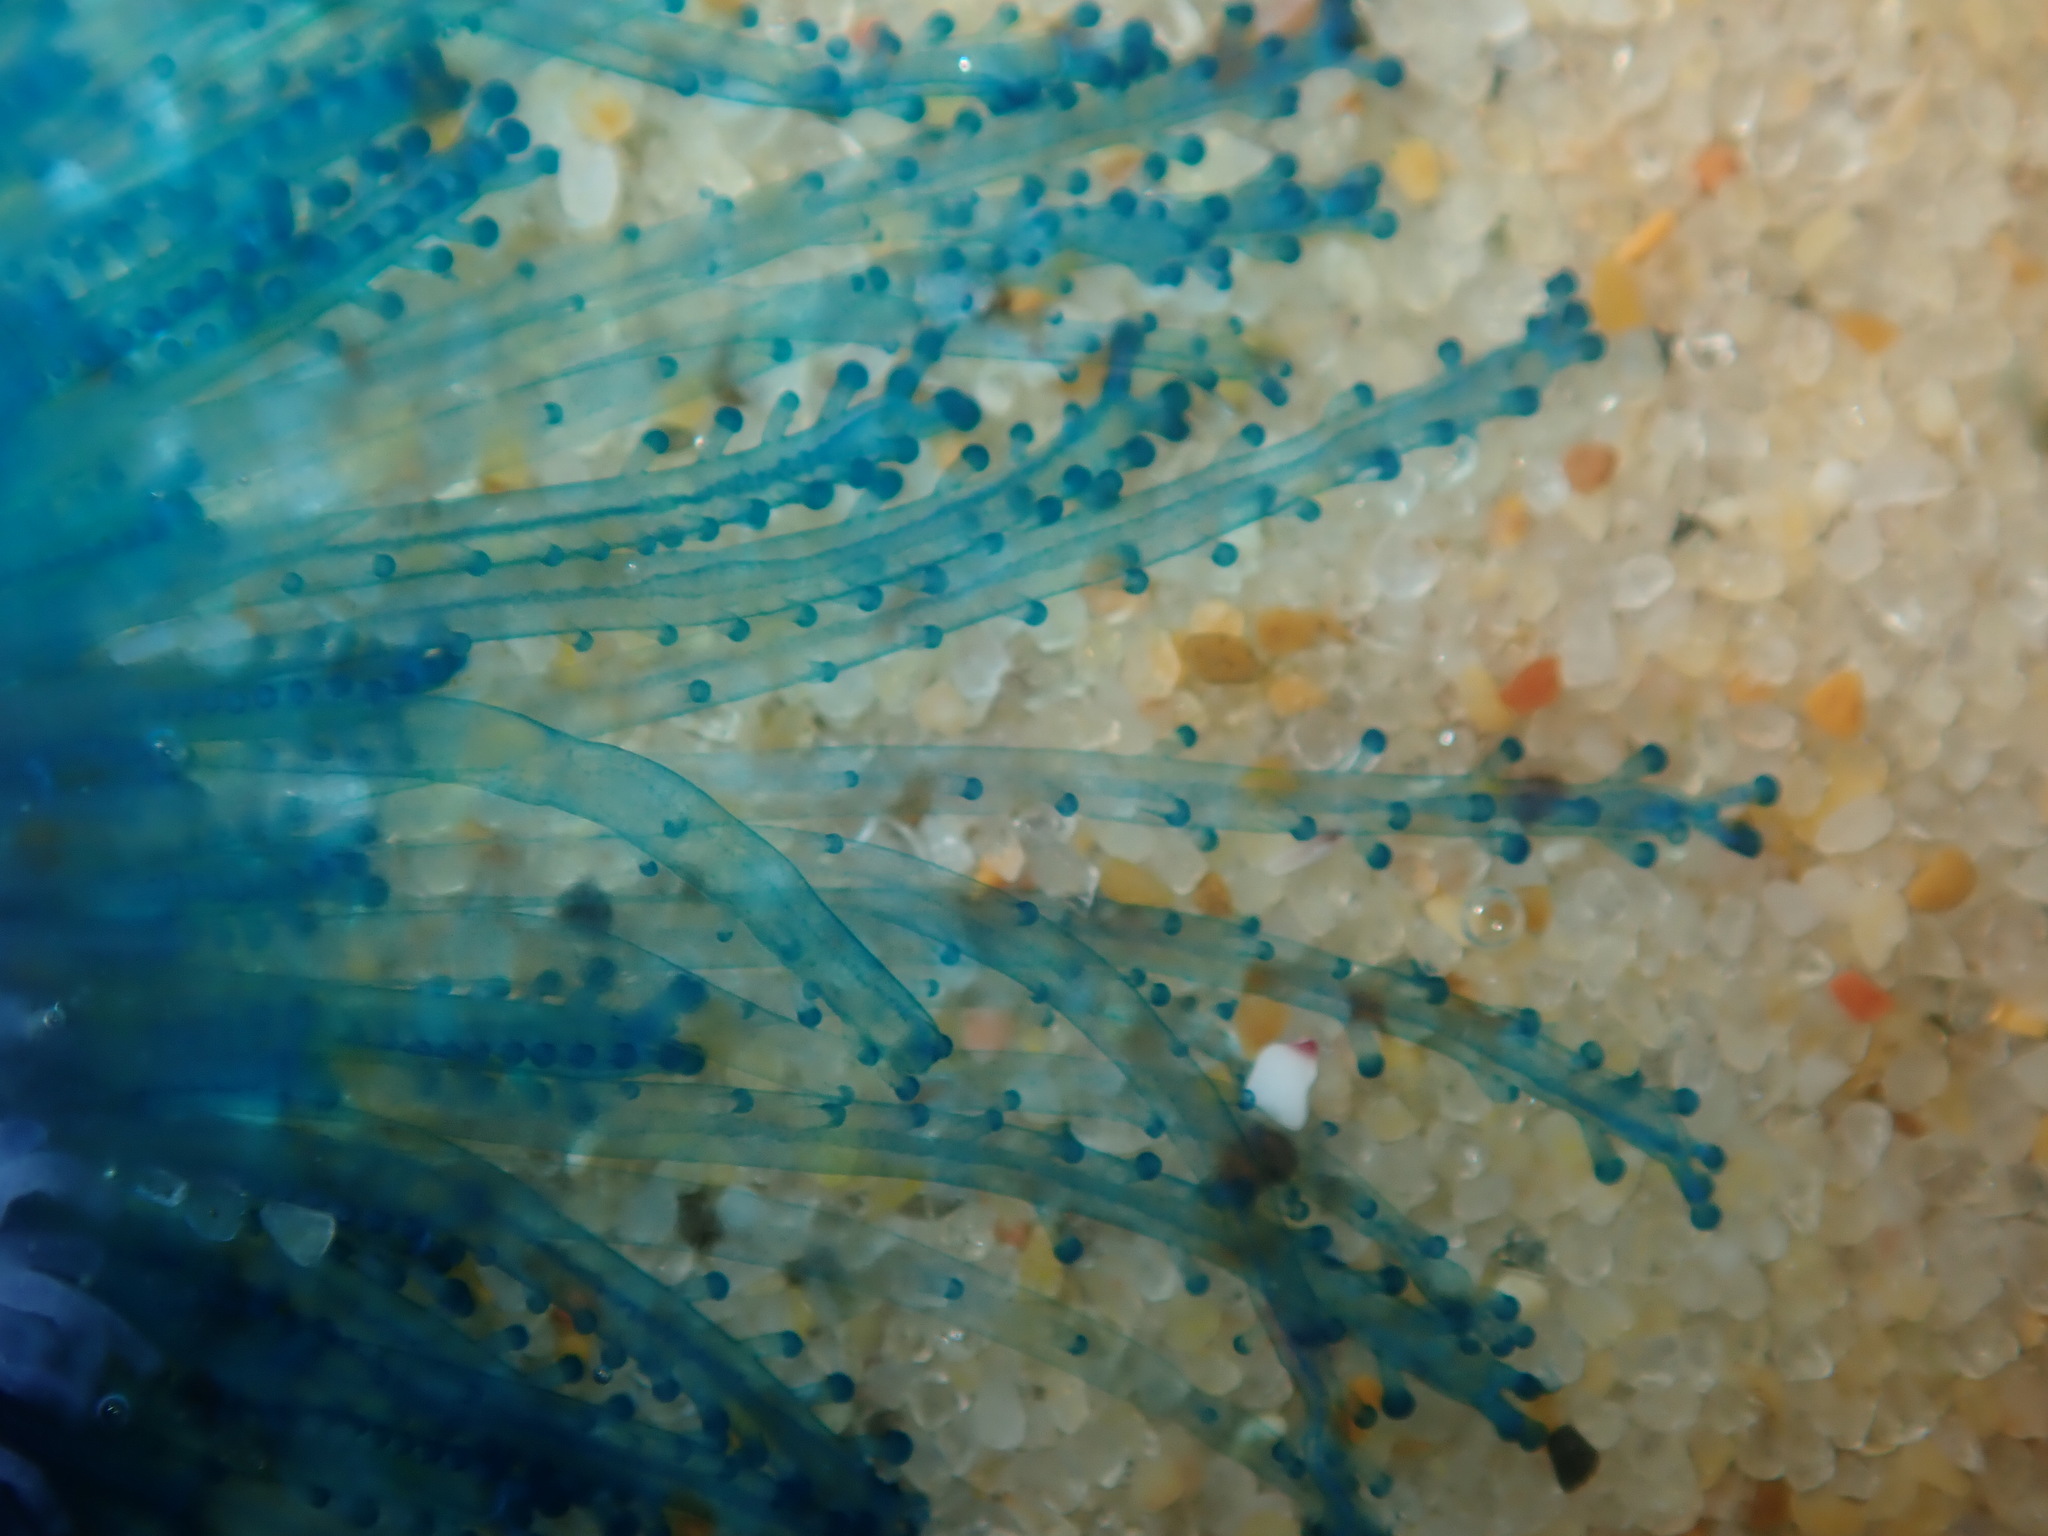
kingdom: Animalia
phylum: Cnidaria
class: Hydrozoa
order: Anthoathecata
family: Porpitidae
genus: Porpita
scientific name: Porpita porpita
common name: Blue button
